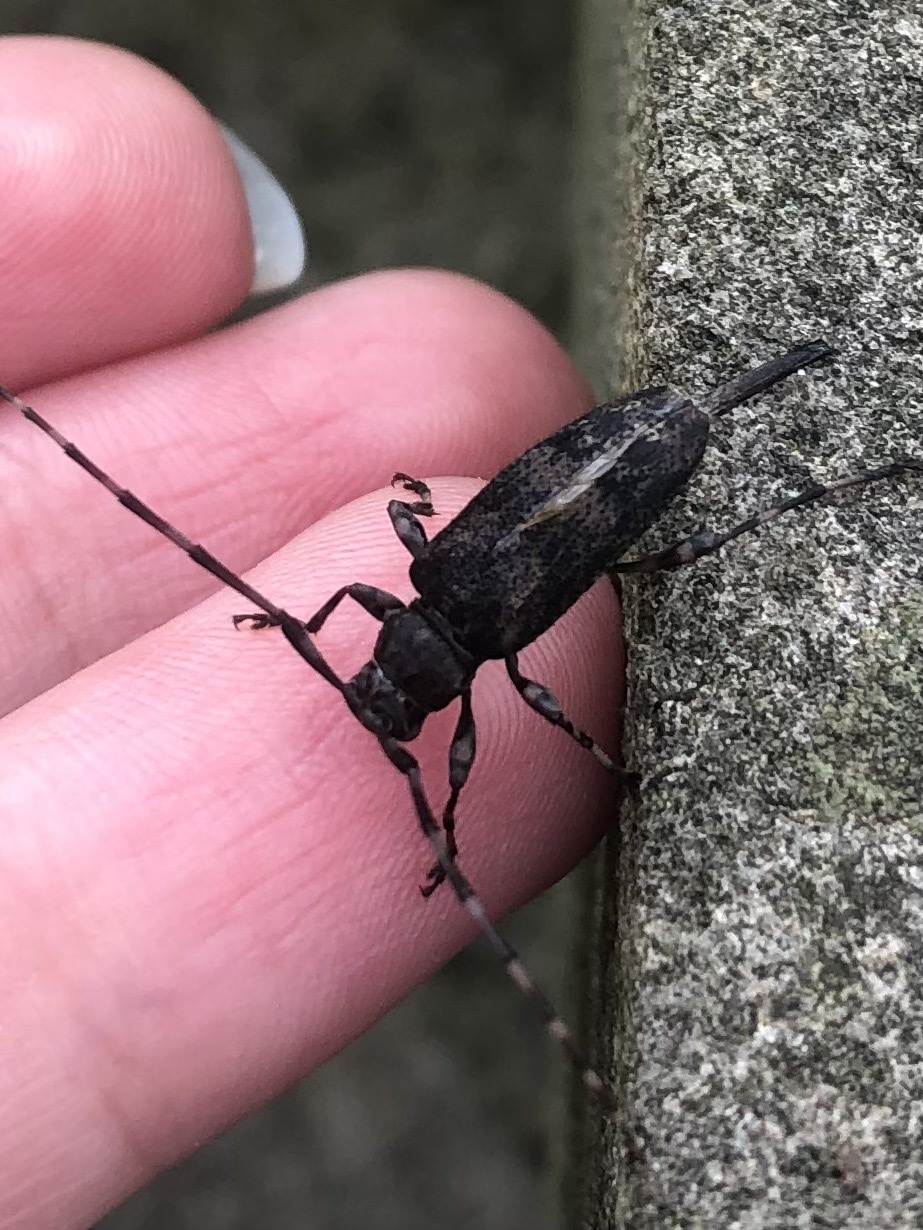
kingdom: Animalia
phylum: Arthropoda
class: Insecta
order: Coleoptera
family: Cerambycidae
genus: Graphisurus
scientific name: Graphisurus fasciatus
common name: Banded graphisurus
